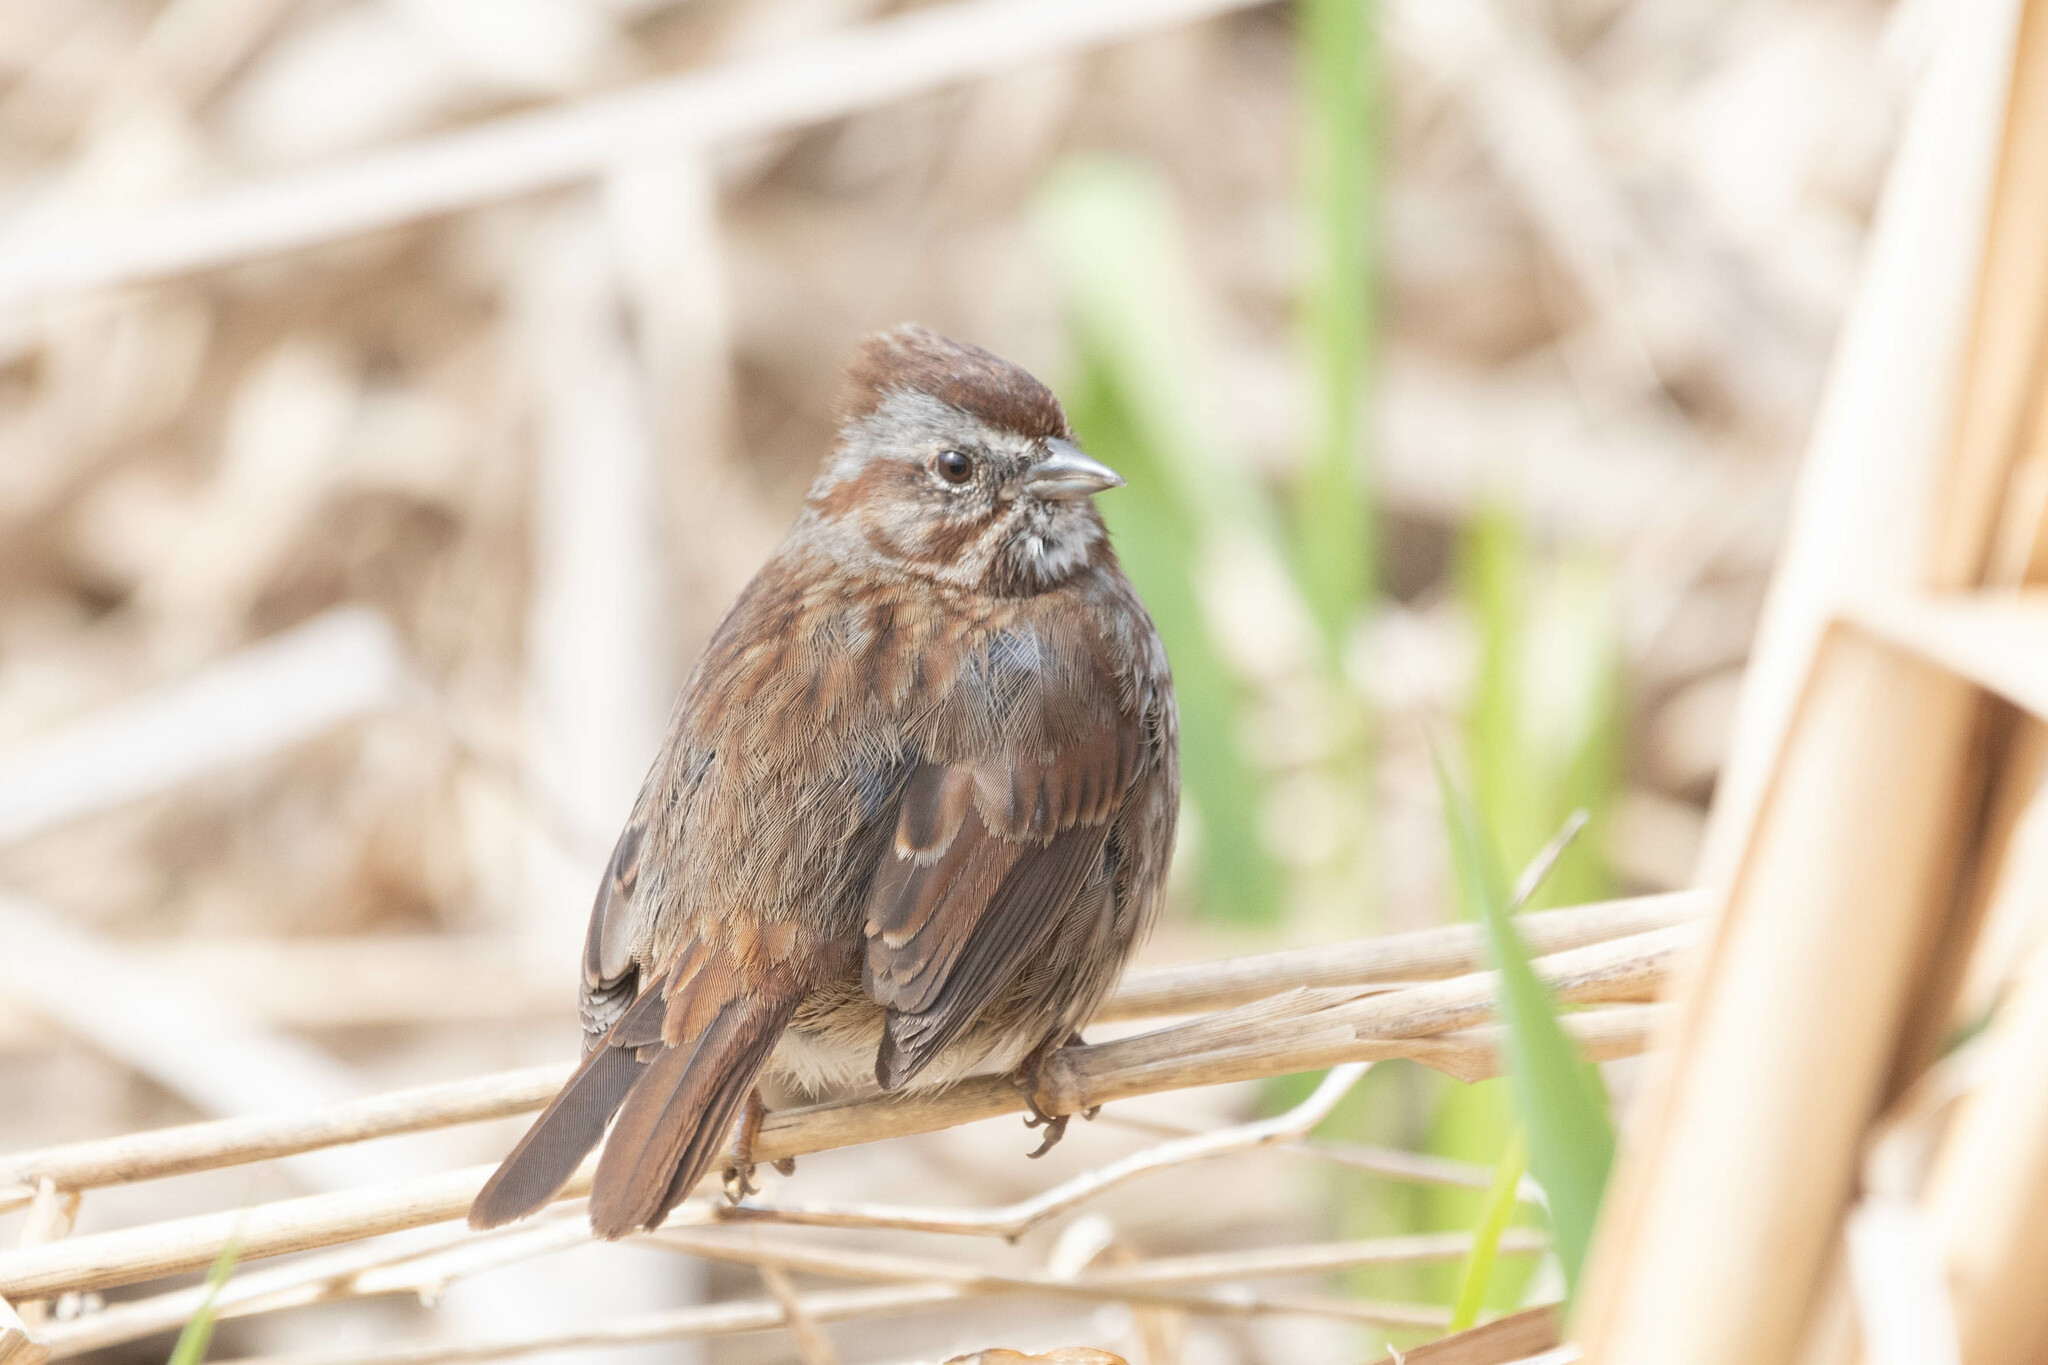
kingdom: Animalia
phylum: Chordata
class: Aves
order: Passeriformes
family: Passerellidae
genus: Melospiza
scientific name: Melospiza melodia
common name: Song sparrow
